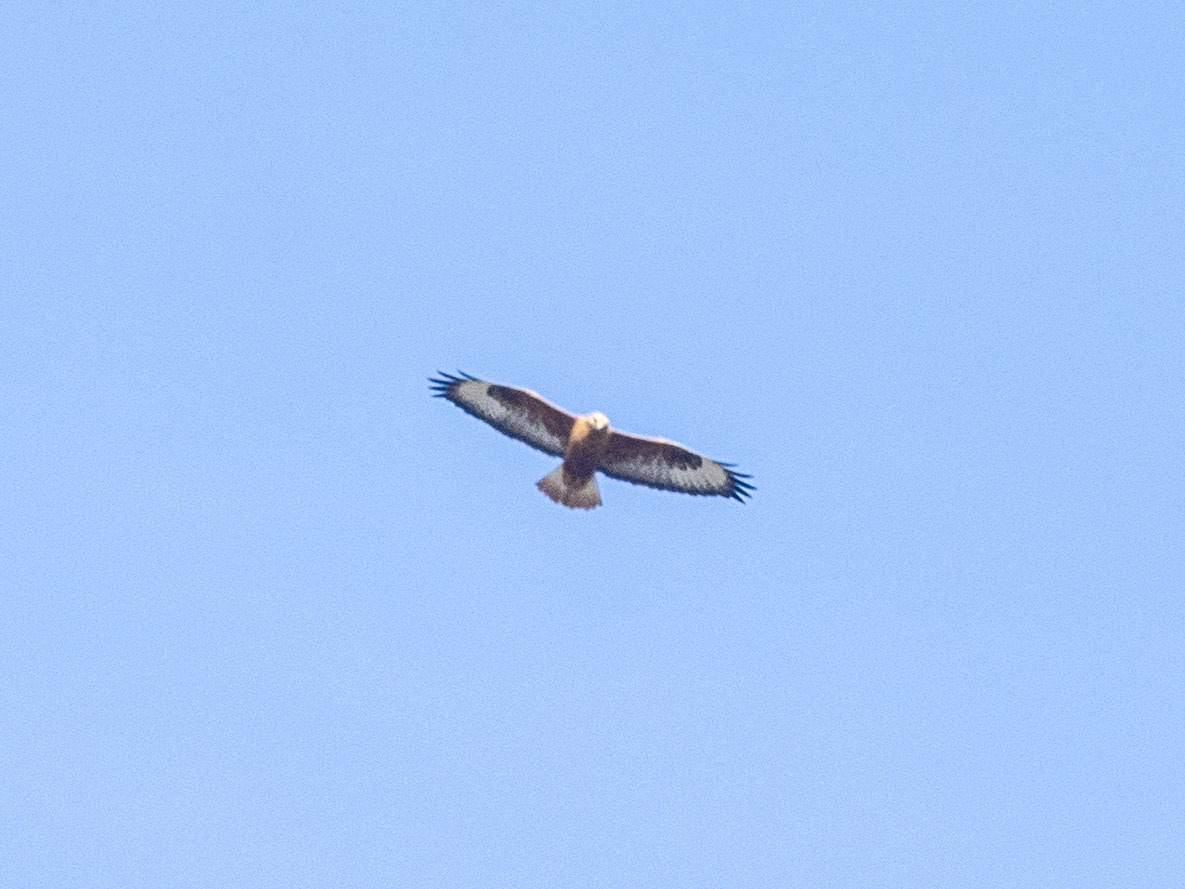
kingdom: Animalia
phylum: Chordata
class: Aves
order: Accipitriformes
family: Accipitridae
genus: Buteo
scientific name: Buteo rufinus
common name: Long-legged buzzard
